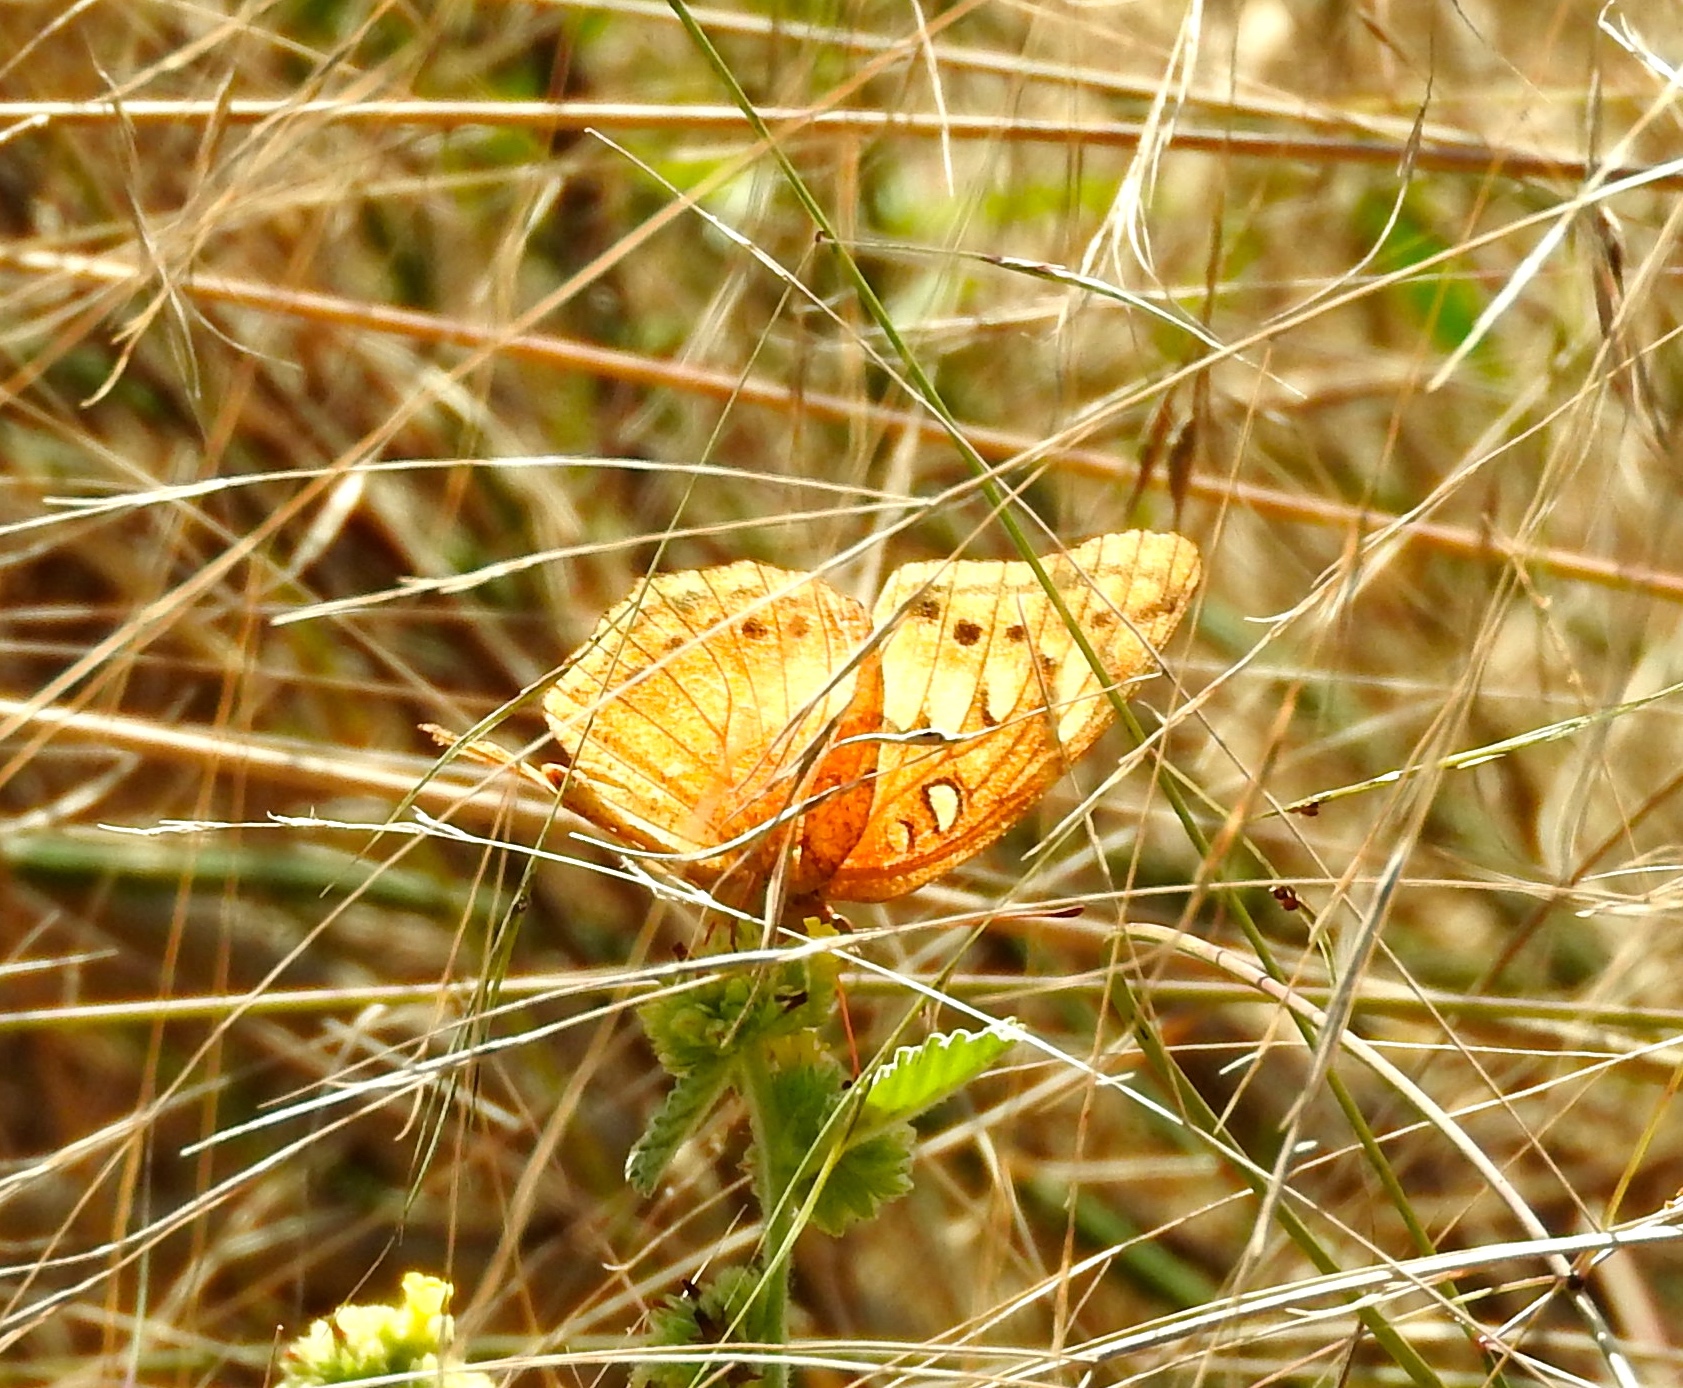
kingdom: Animalia
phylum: Arthropoda
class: Insecta
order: Lepidoptera
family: Nymphalidae
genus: Euptoieta
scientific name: Euptoieta hegesia
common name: Mexican fritillary
